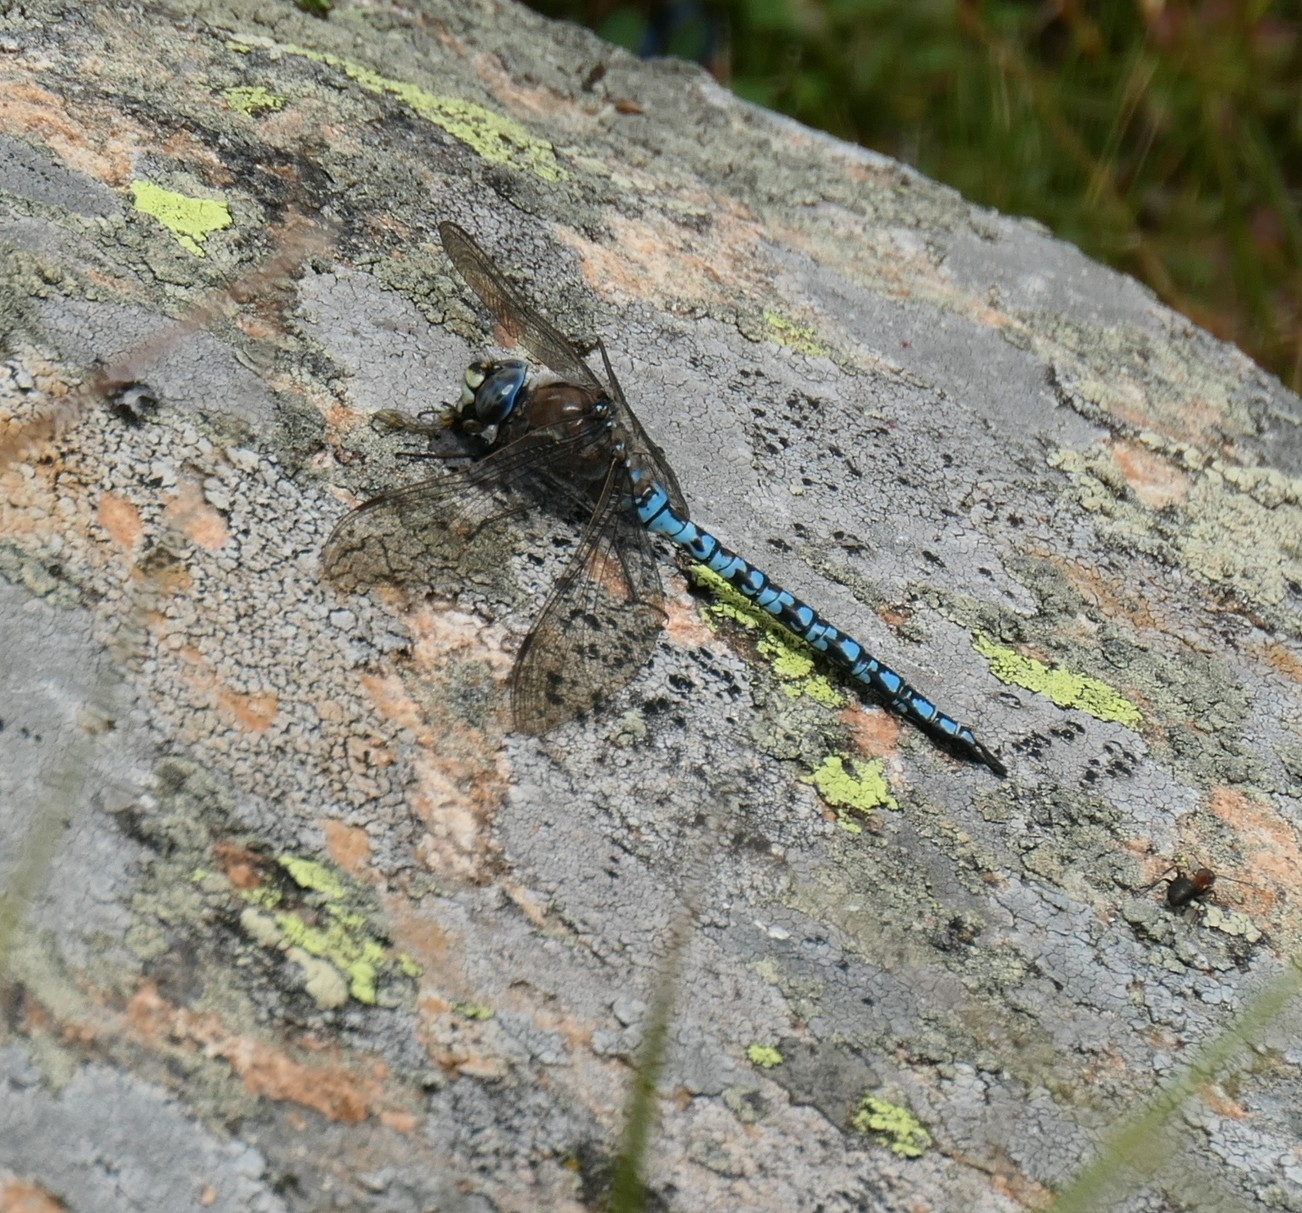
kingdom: Animalia
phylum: Arthropoda
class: Insecta
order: Odonata
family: Aeshnidae
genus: Aeshna
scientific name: Aeshna caerulea
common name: Azure hawker
